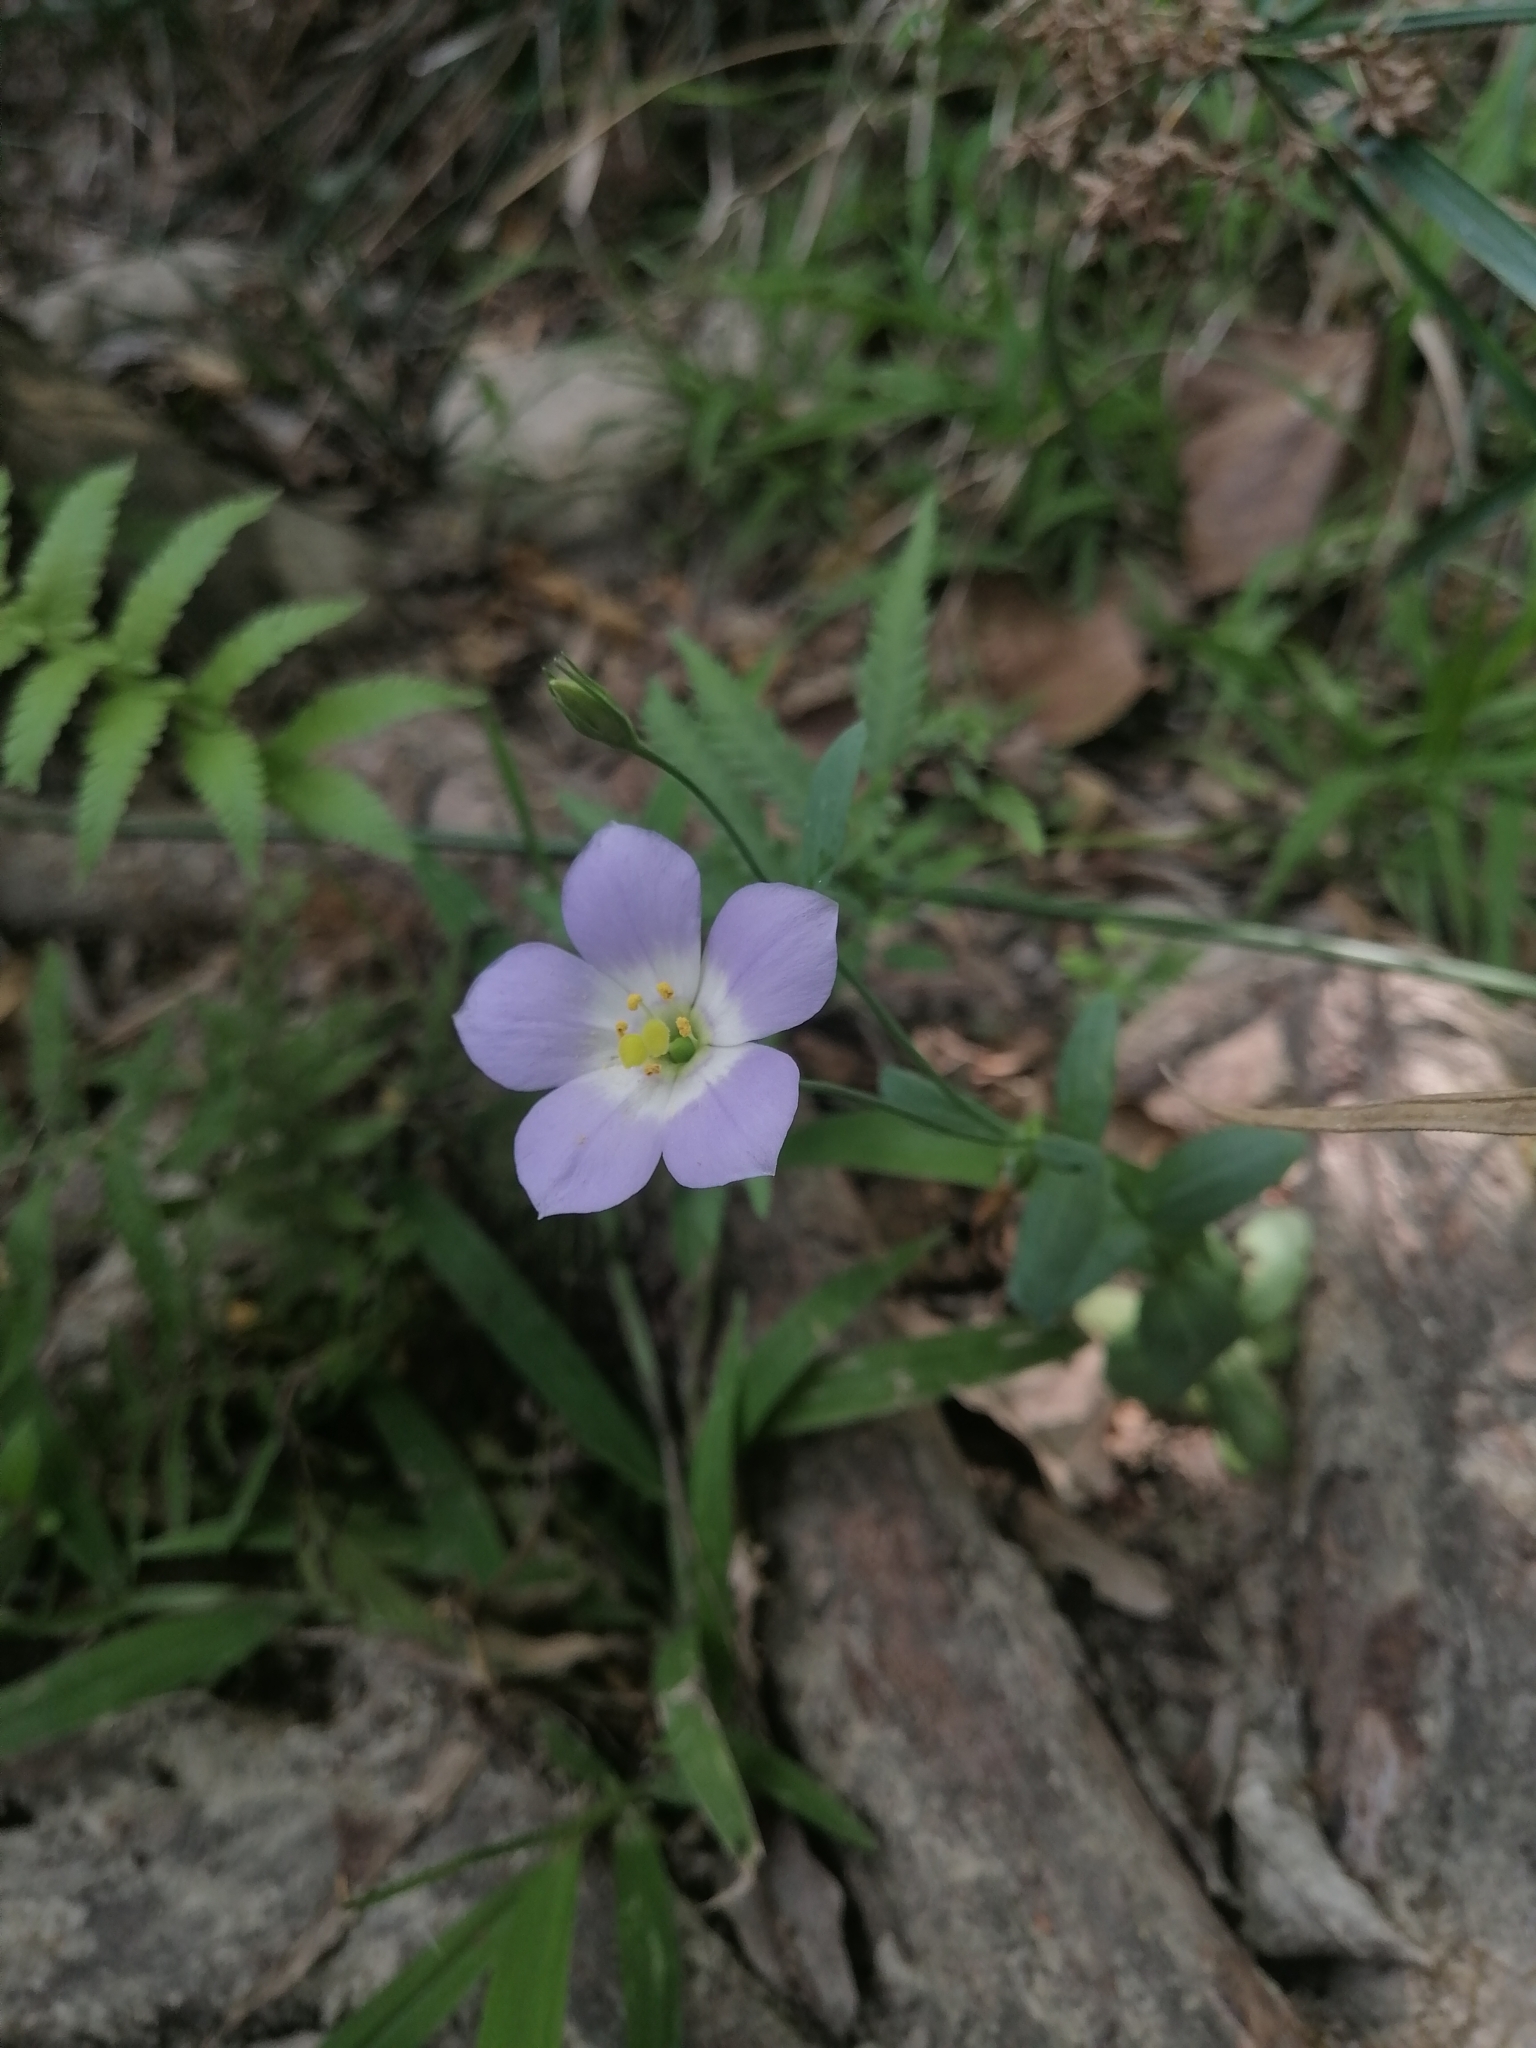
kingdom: Plantae
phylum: Tracheophyta
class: Magnoliopsida
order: Gentianales
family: Gentianaceae
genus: Eustoma
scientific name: Eustoma exaltatum
